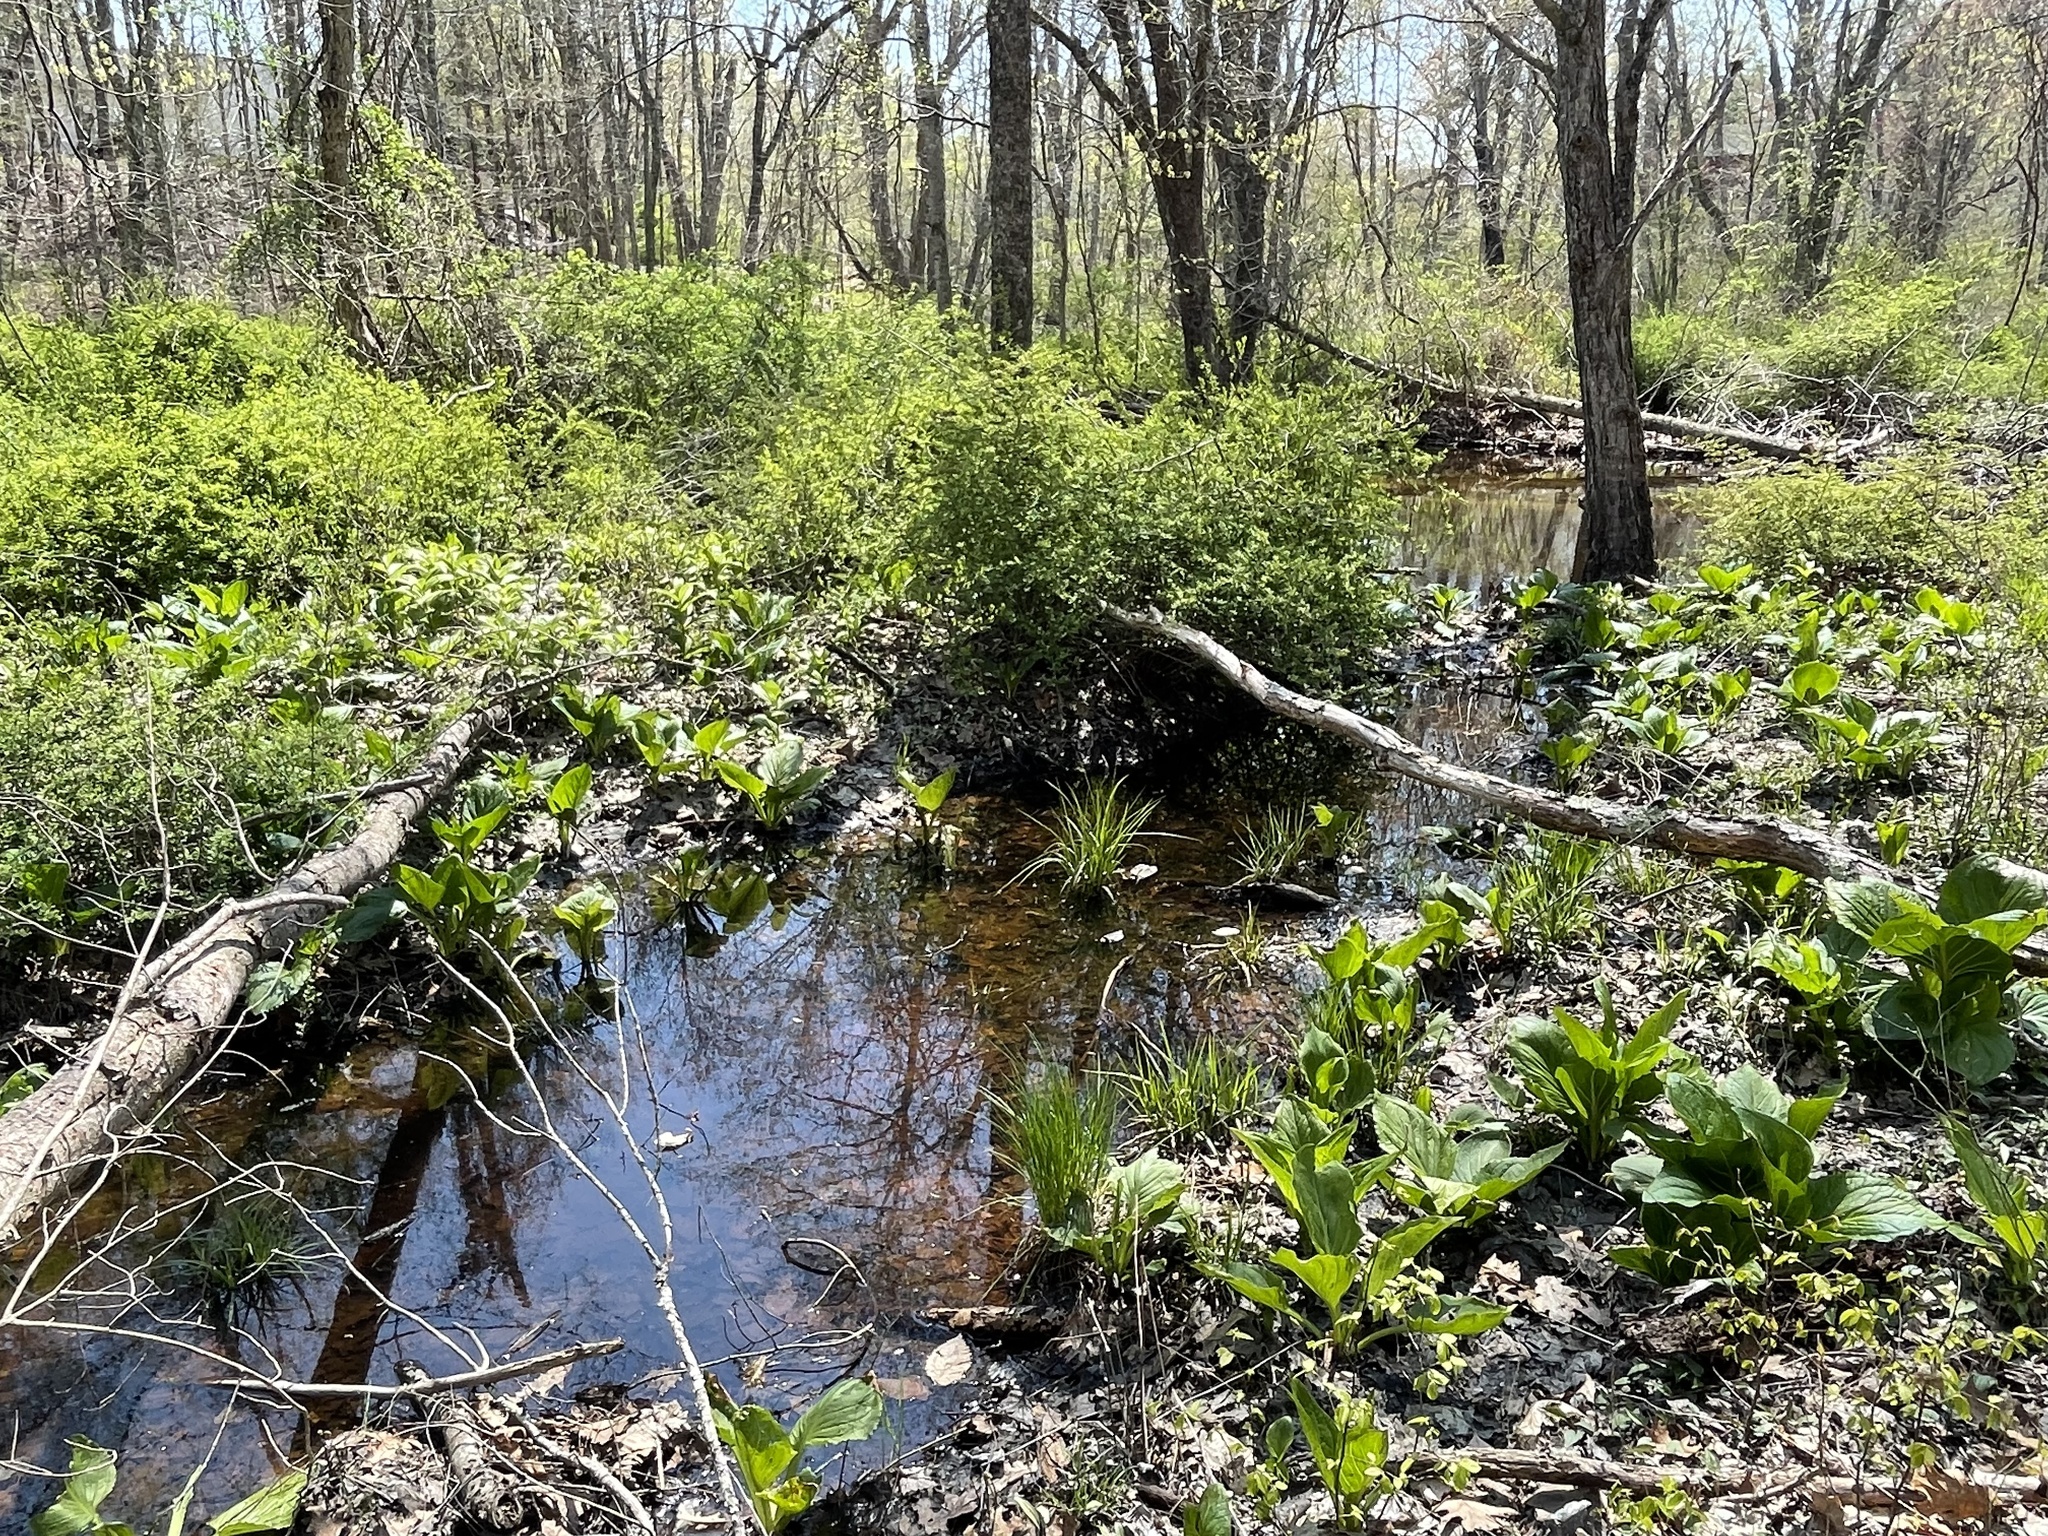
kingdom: Animalia
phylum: Chordata
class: Amphibia
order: Caudata
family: Ambystomatidae
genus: Ambystoma
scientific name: Ambystoma maculatum
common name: Spotted salamander
